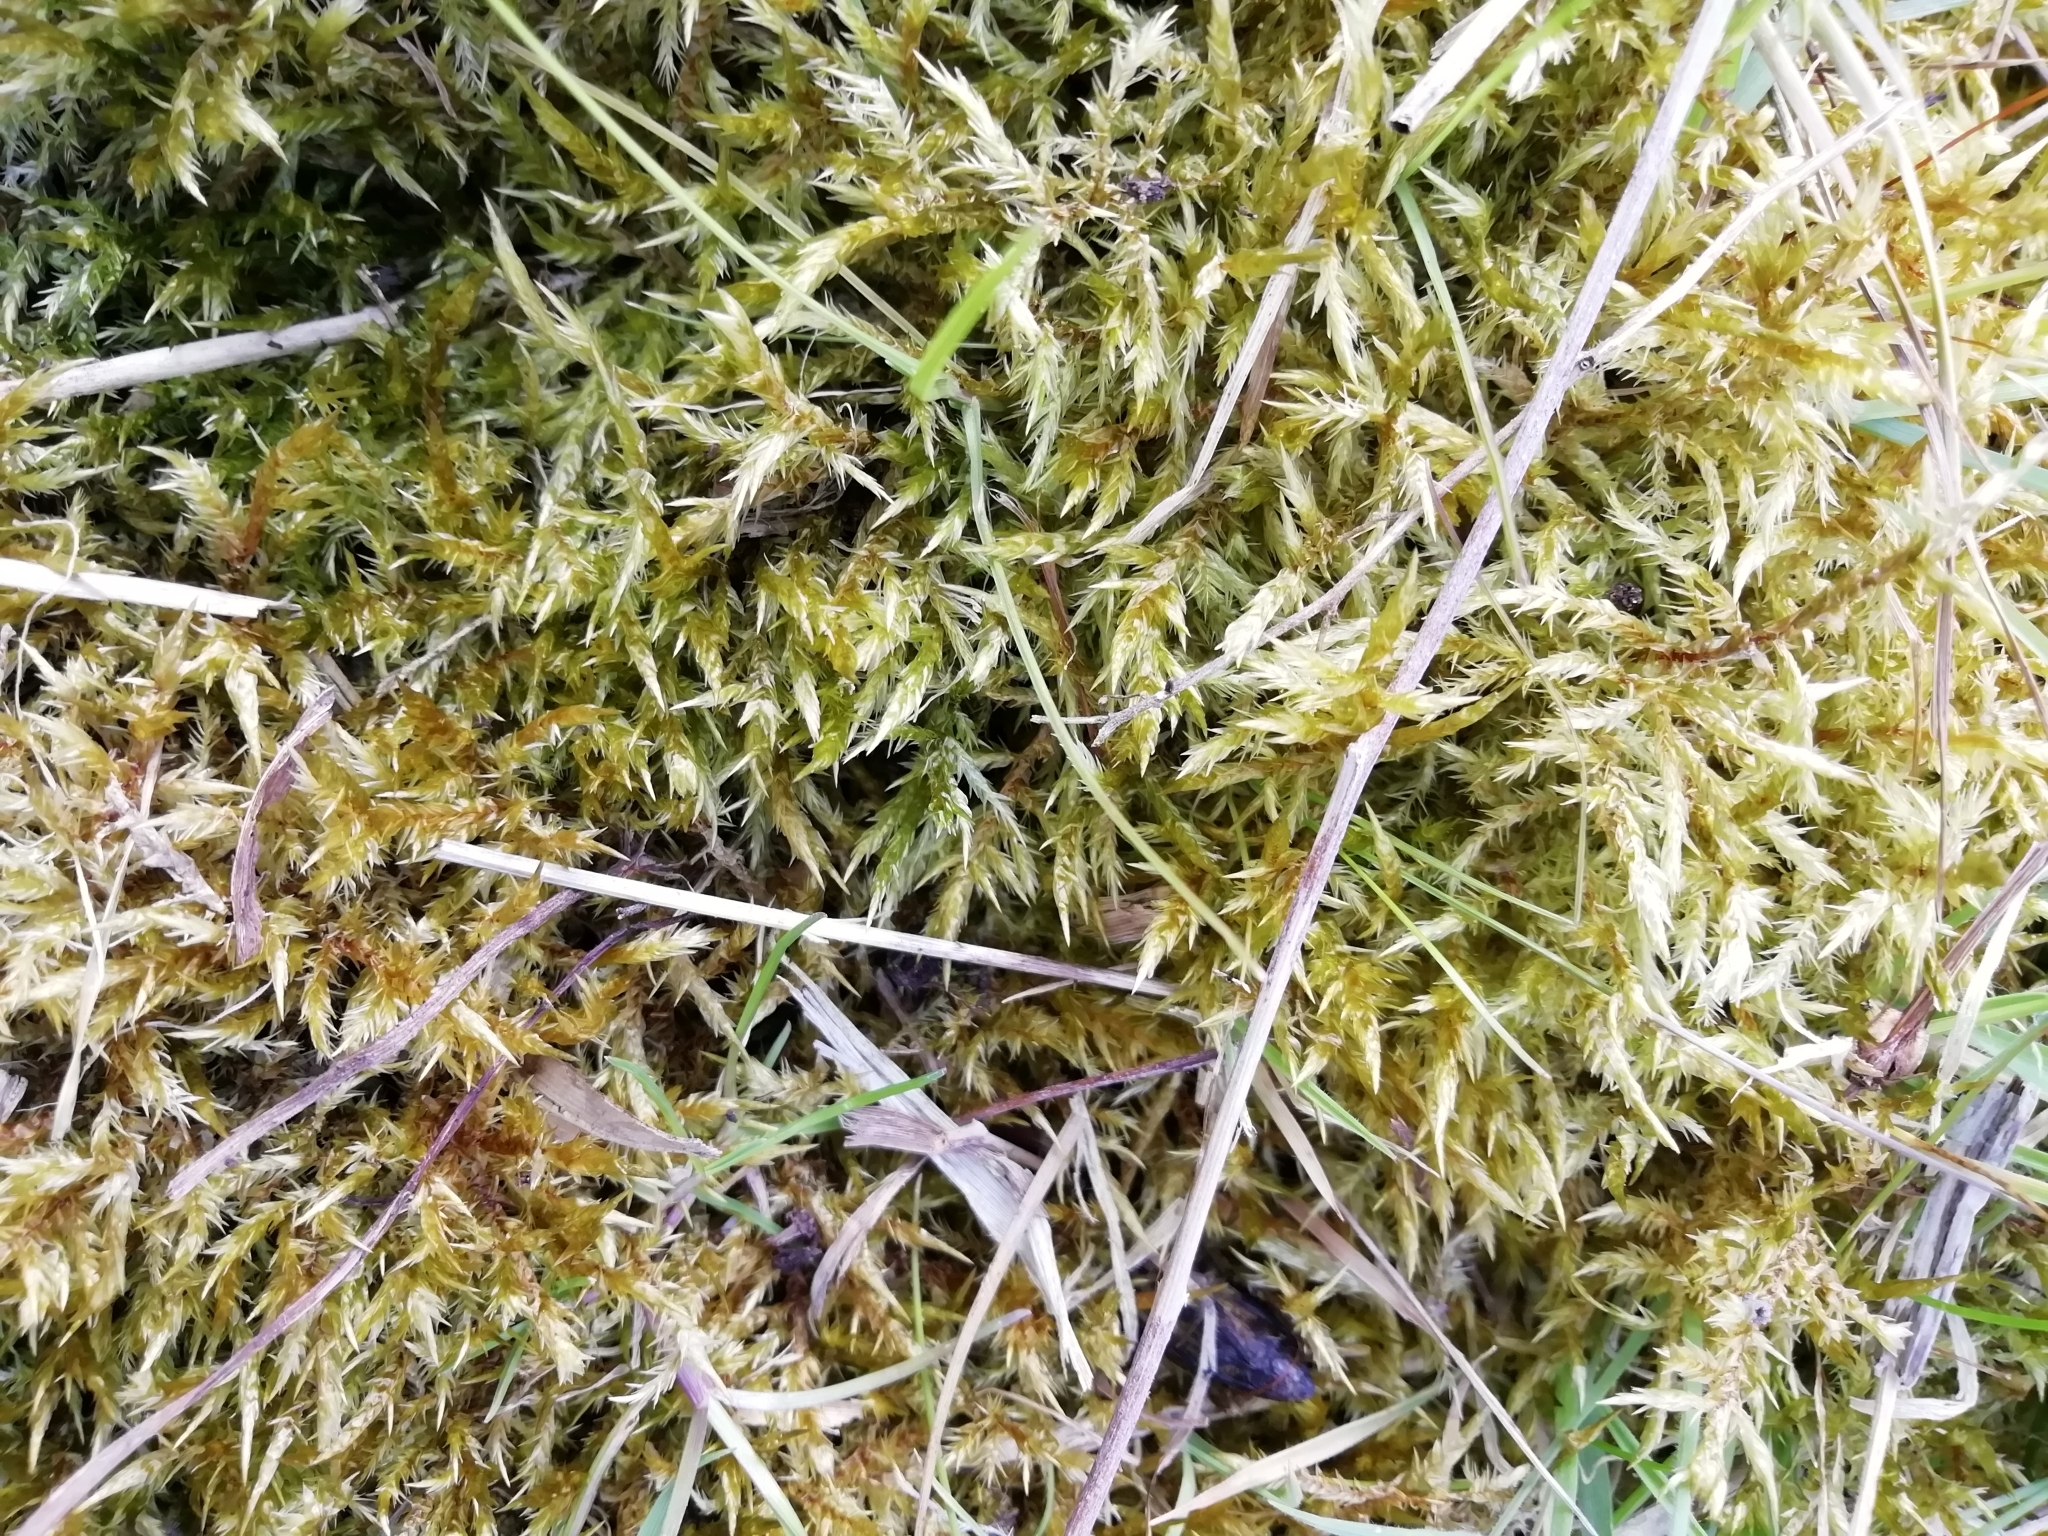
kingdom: Plantae
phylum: Bryophyta
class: Bryopsida
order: Hypnales
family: Pylaisiaceae
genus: Calliergonella
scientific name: Calliergonella cuspidata
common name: Common large wetland moss
